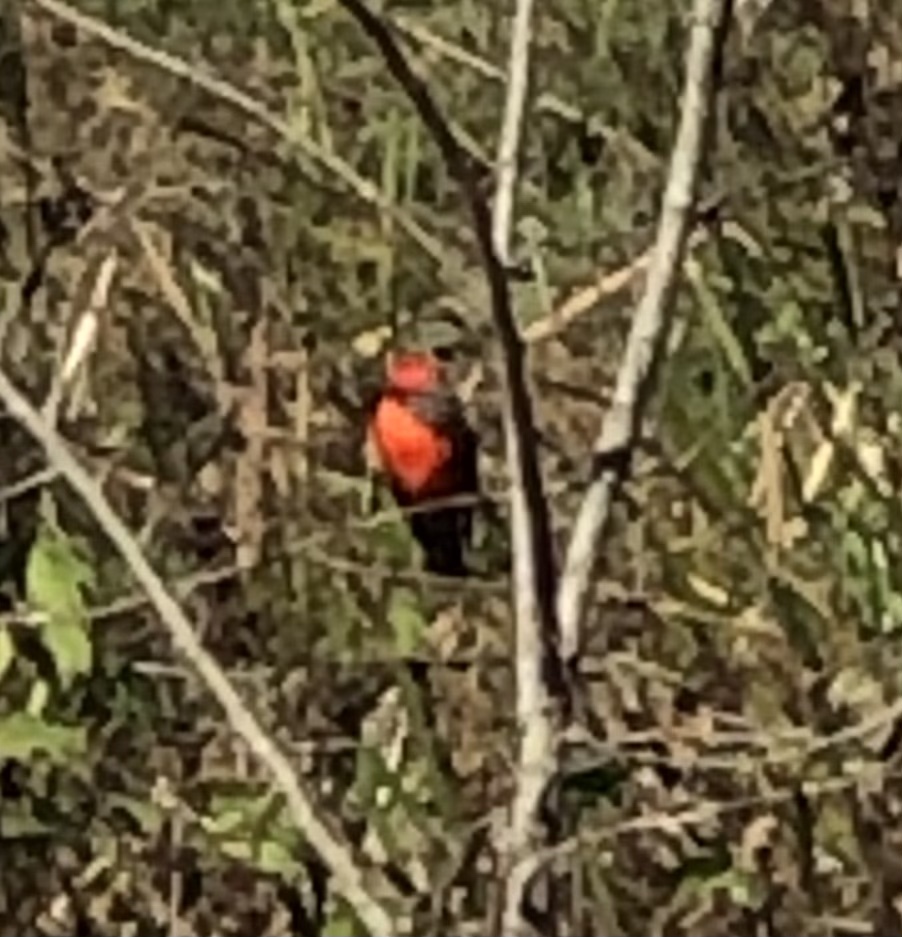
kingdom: Animalia
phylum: Chordata
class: Aves
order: Passeriformes
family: Tyrannidae
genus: Pyrocephalus
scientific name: Pyrocephalus rubinus
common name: Vermilion flycatcher
